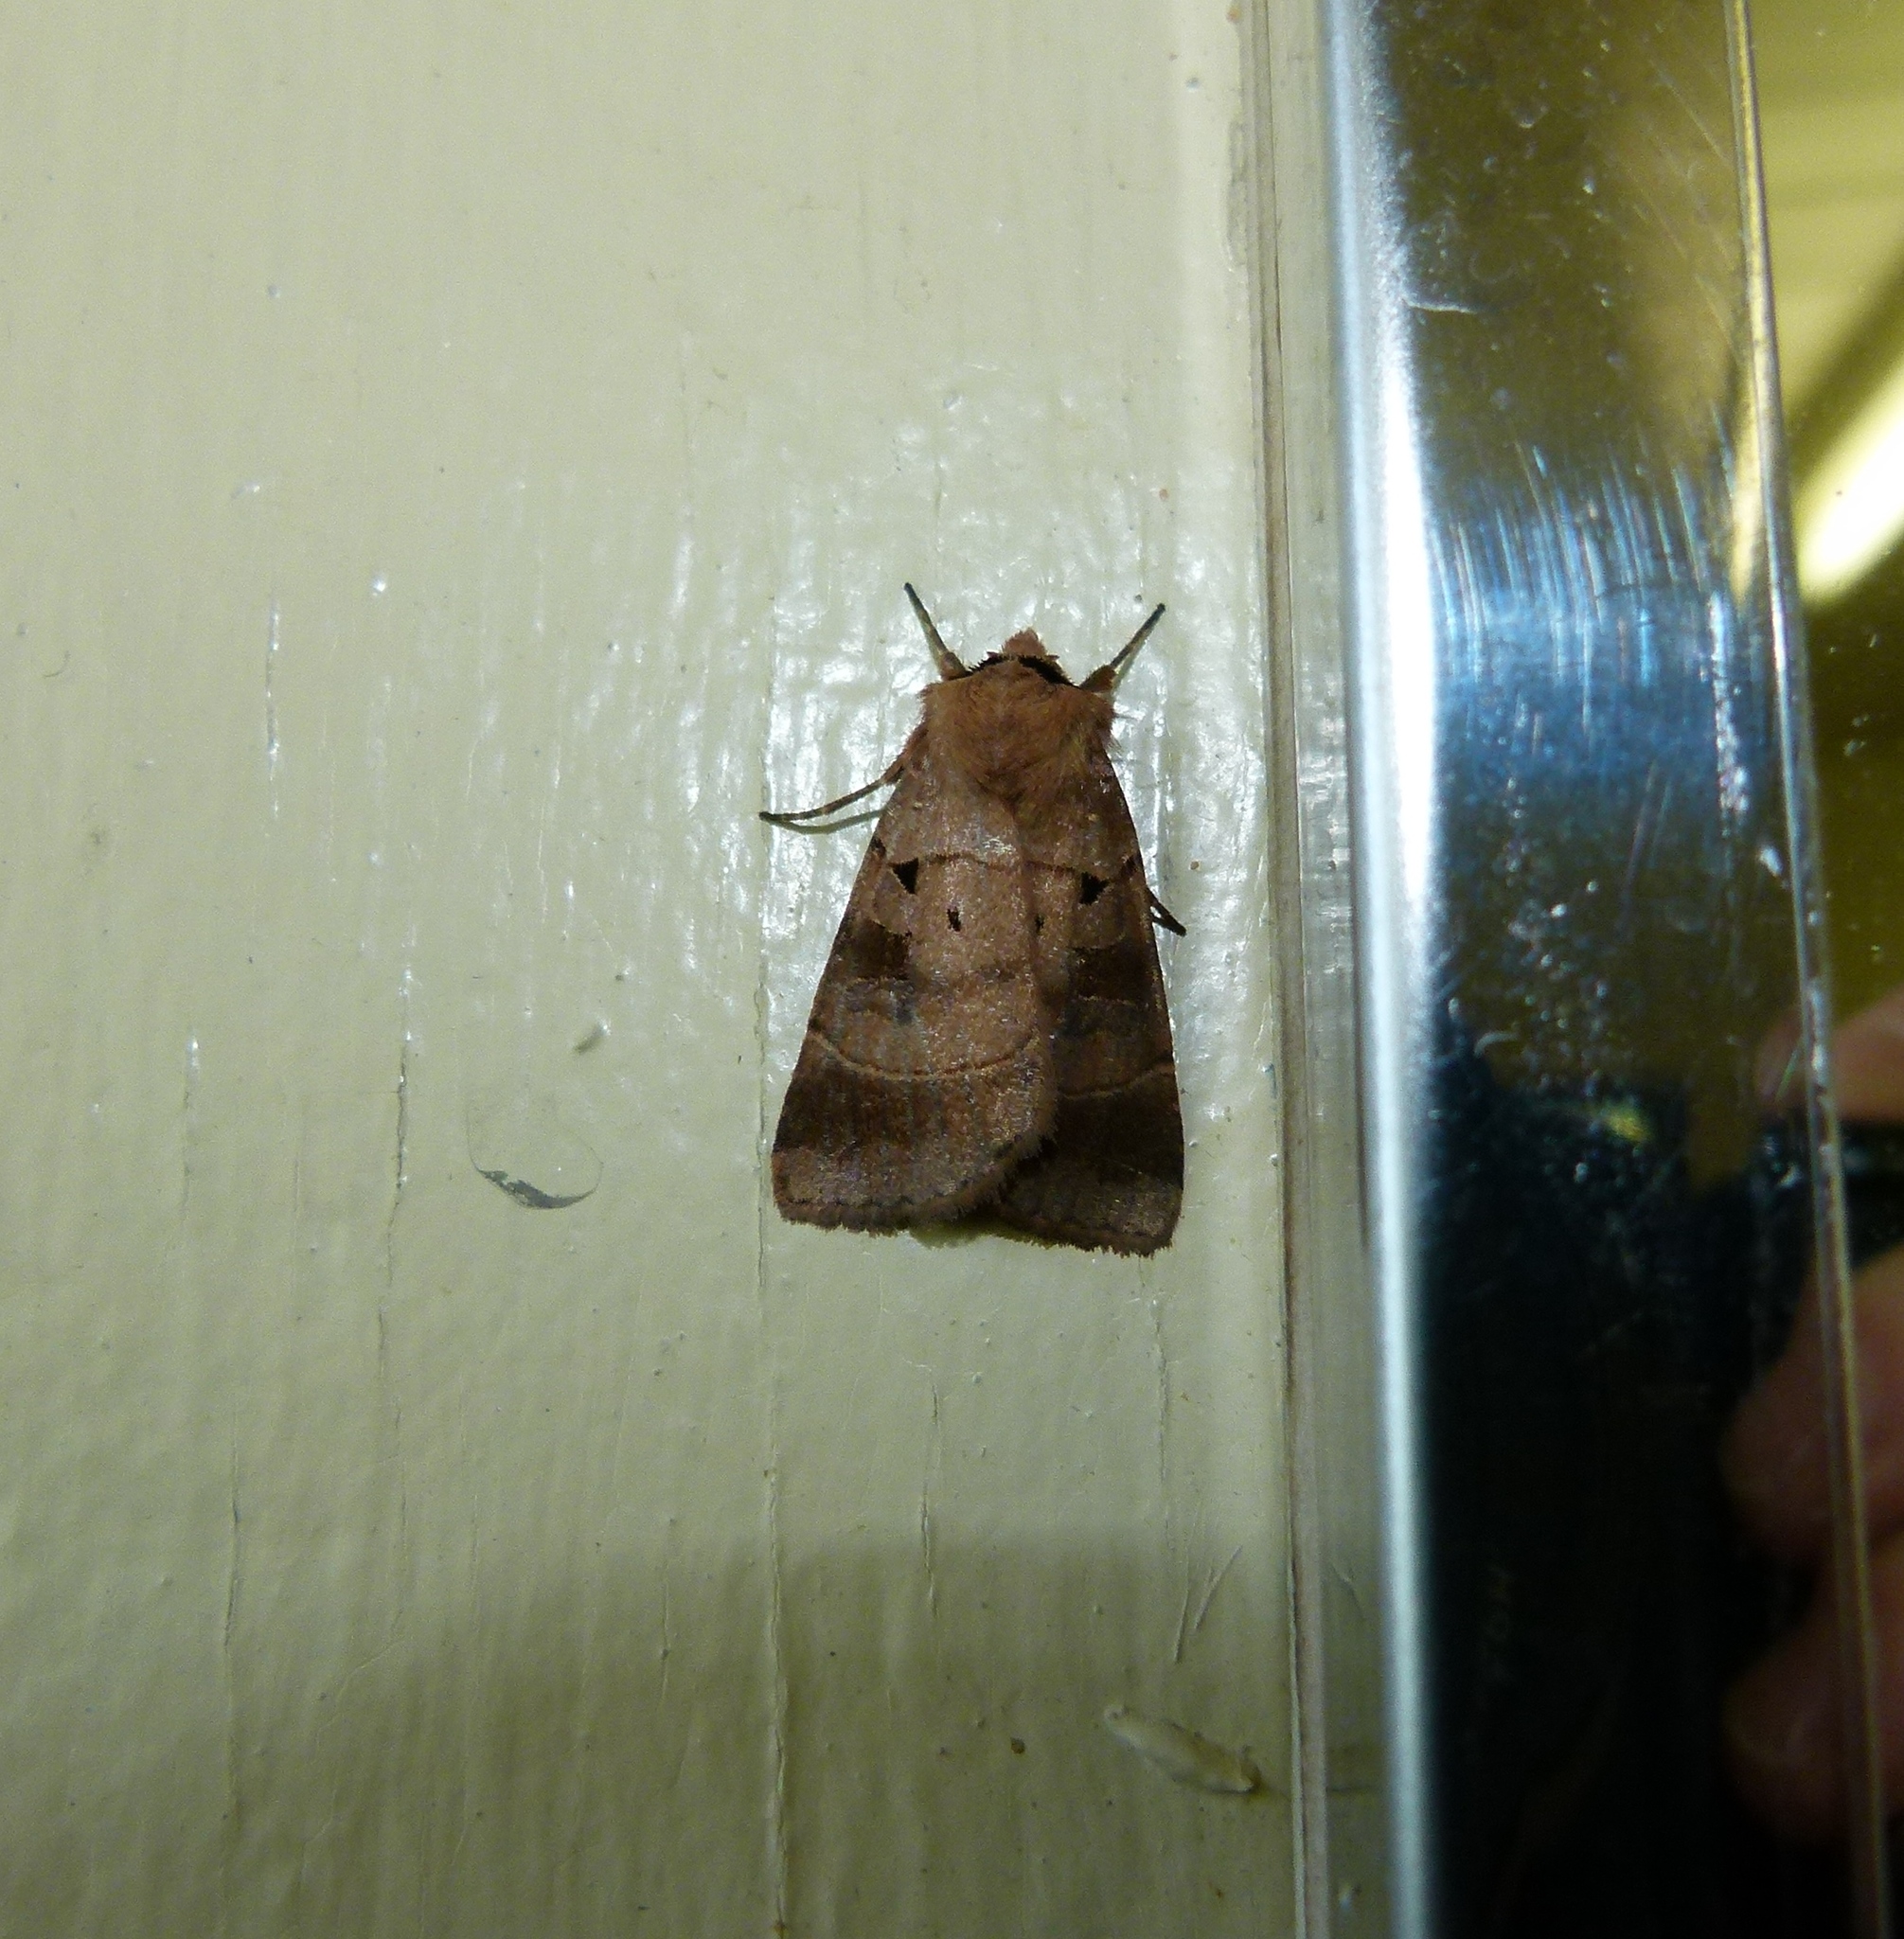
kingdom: Animalia
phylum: Arthropoda
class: Insecta
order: Lepidoptera
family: Noctuidae
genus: Agnorisma
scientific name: Agnorisma badinodis
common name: Pale-banded dart
